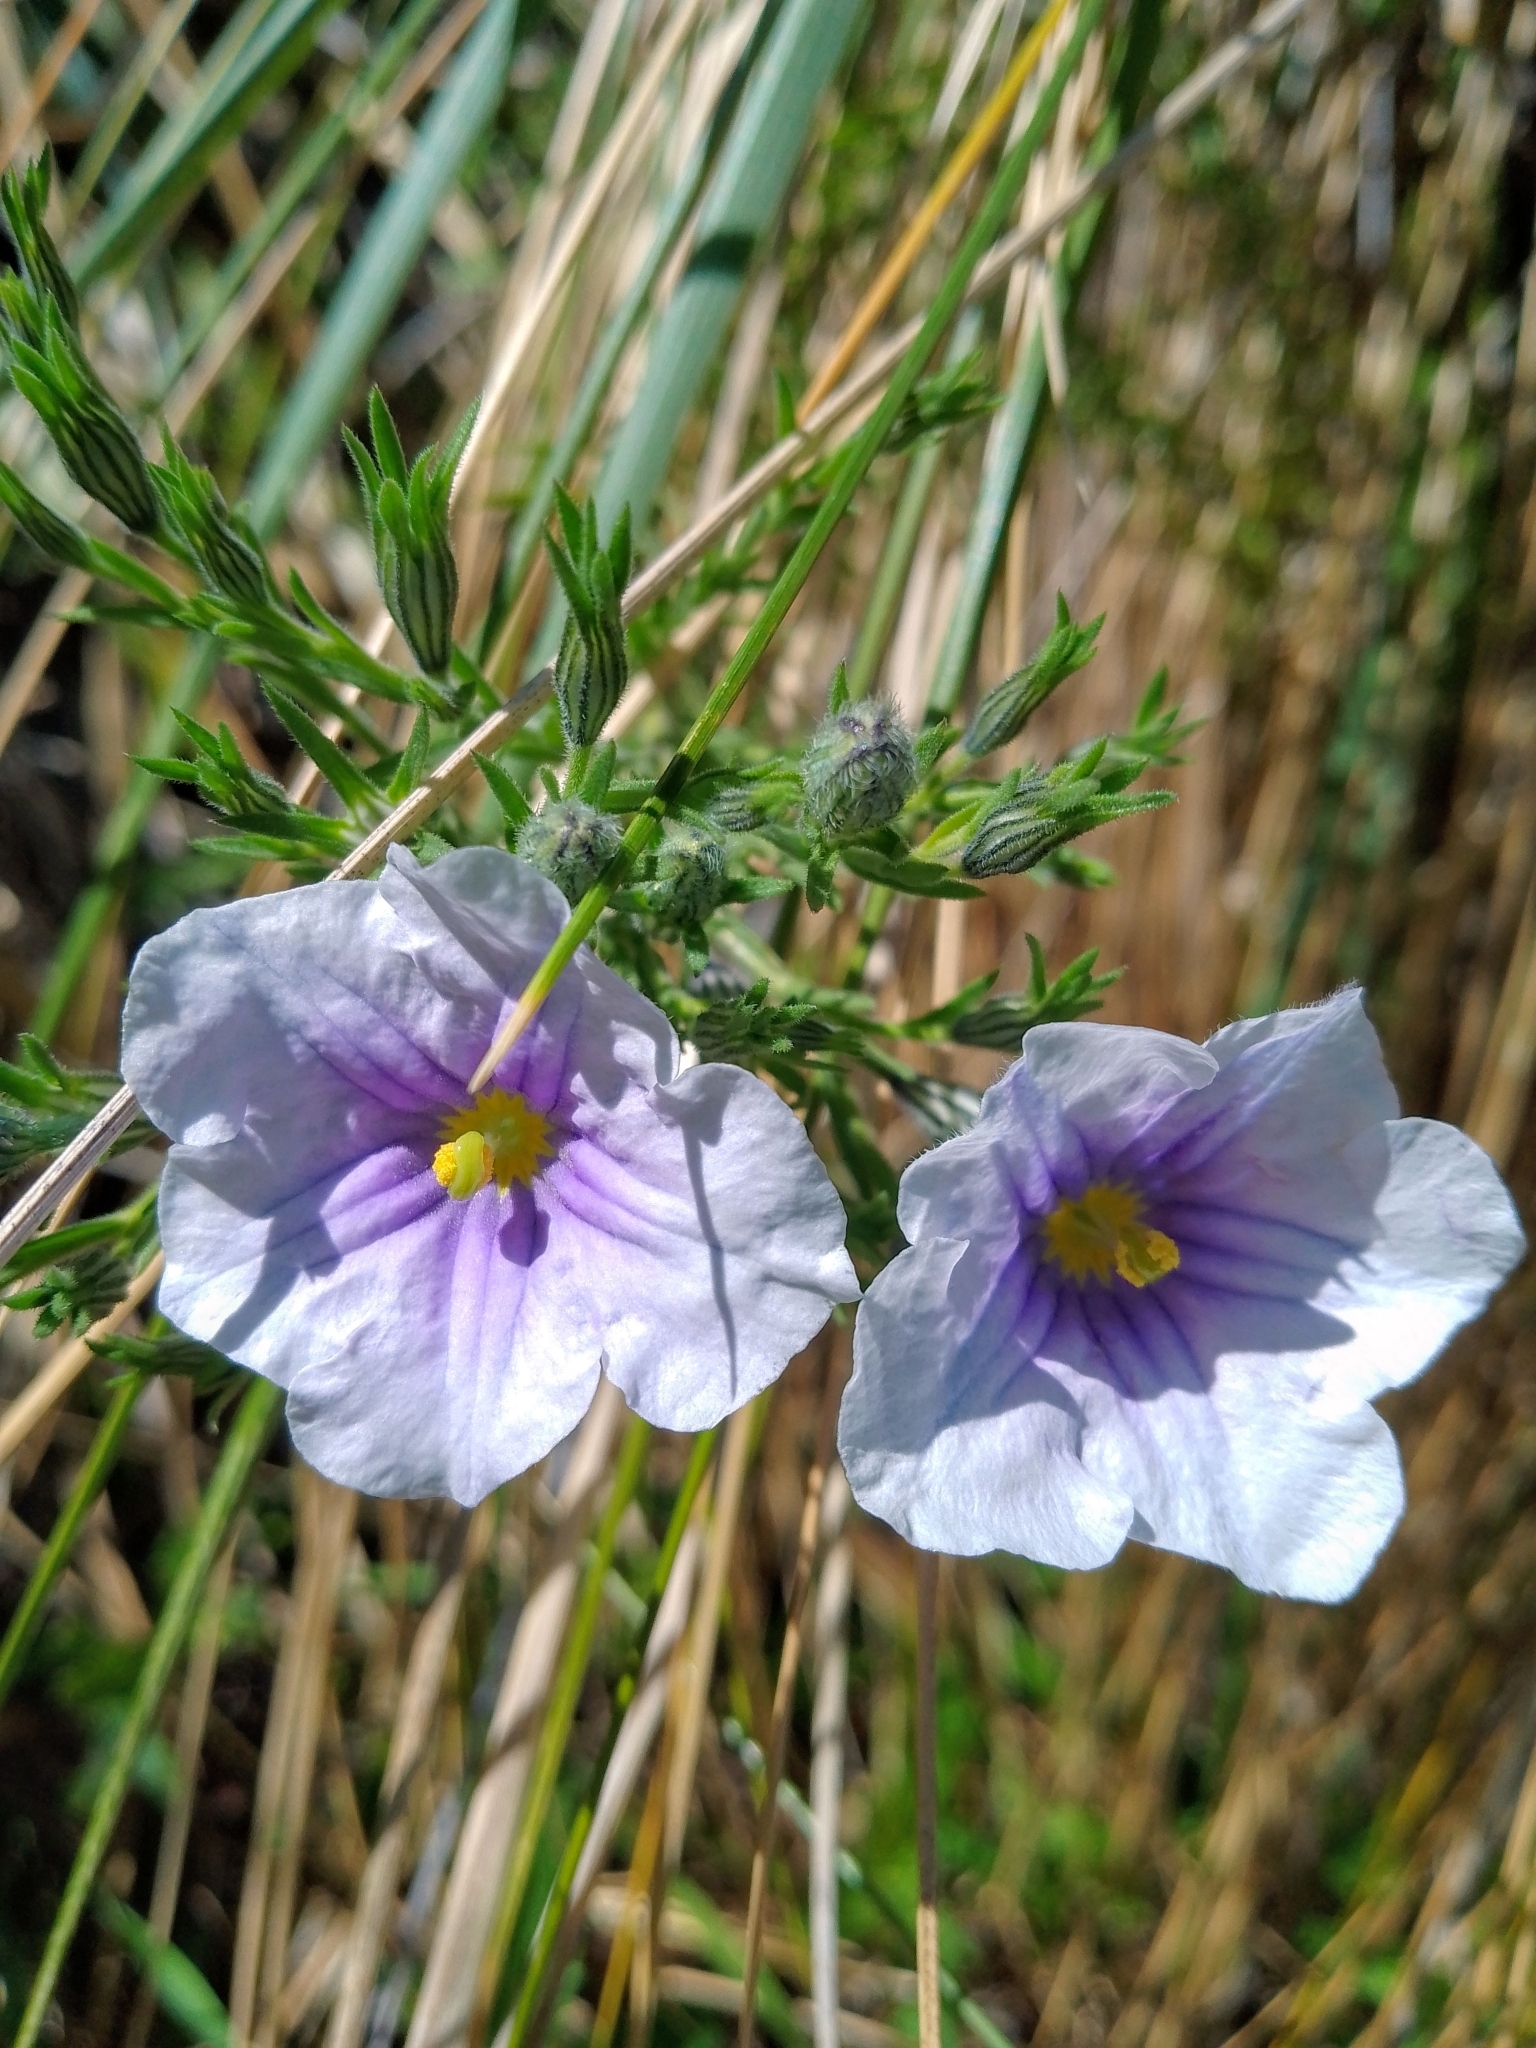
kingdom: Plantae
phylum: Tracheophyta
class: Magnoliopsida
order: Solanales
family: Solanaceae
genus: Nierembergia
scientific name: Nierembergia linariifolia
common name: Dwarf cupflower
